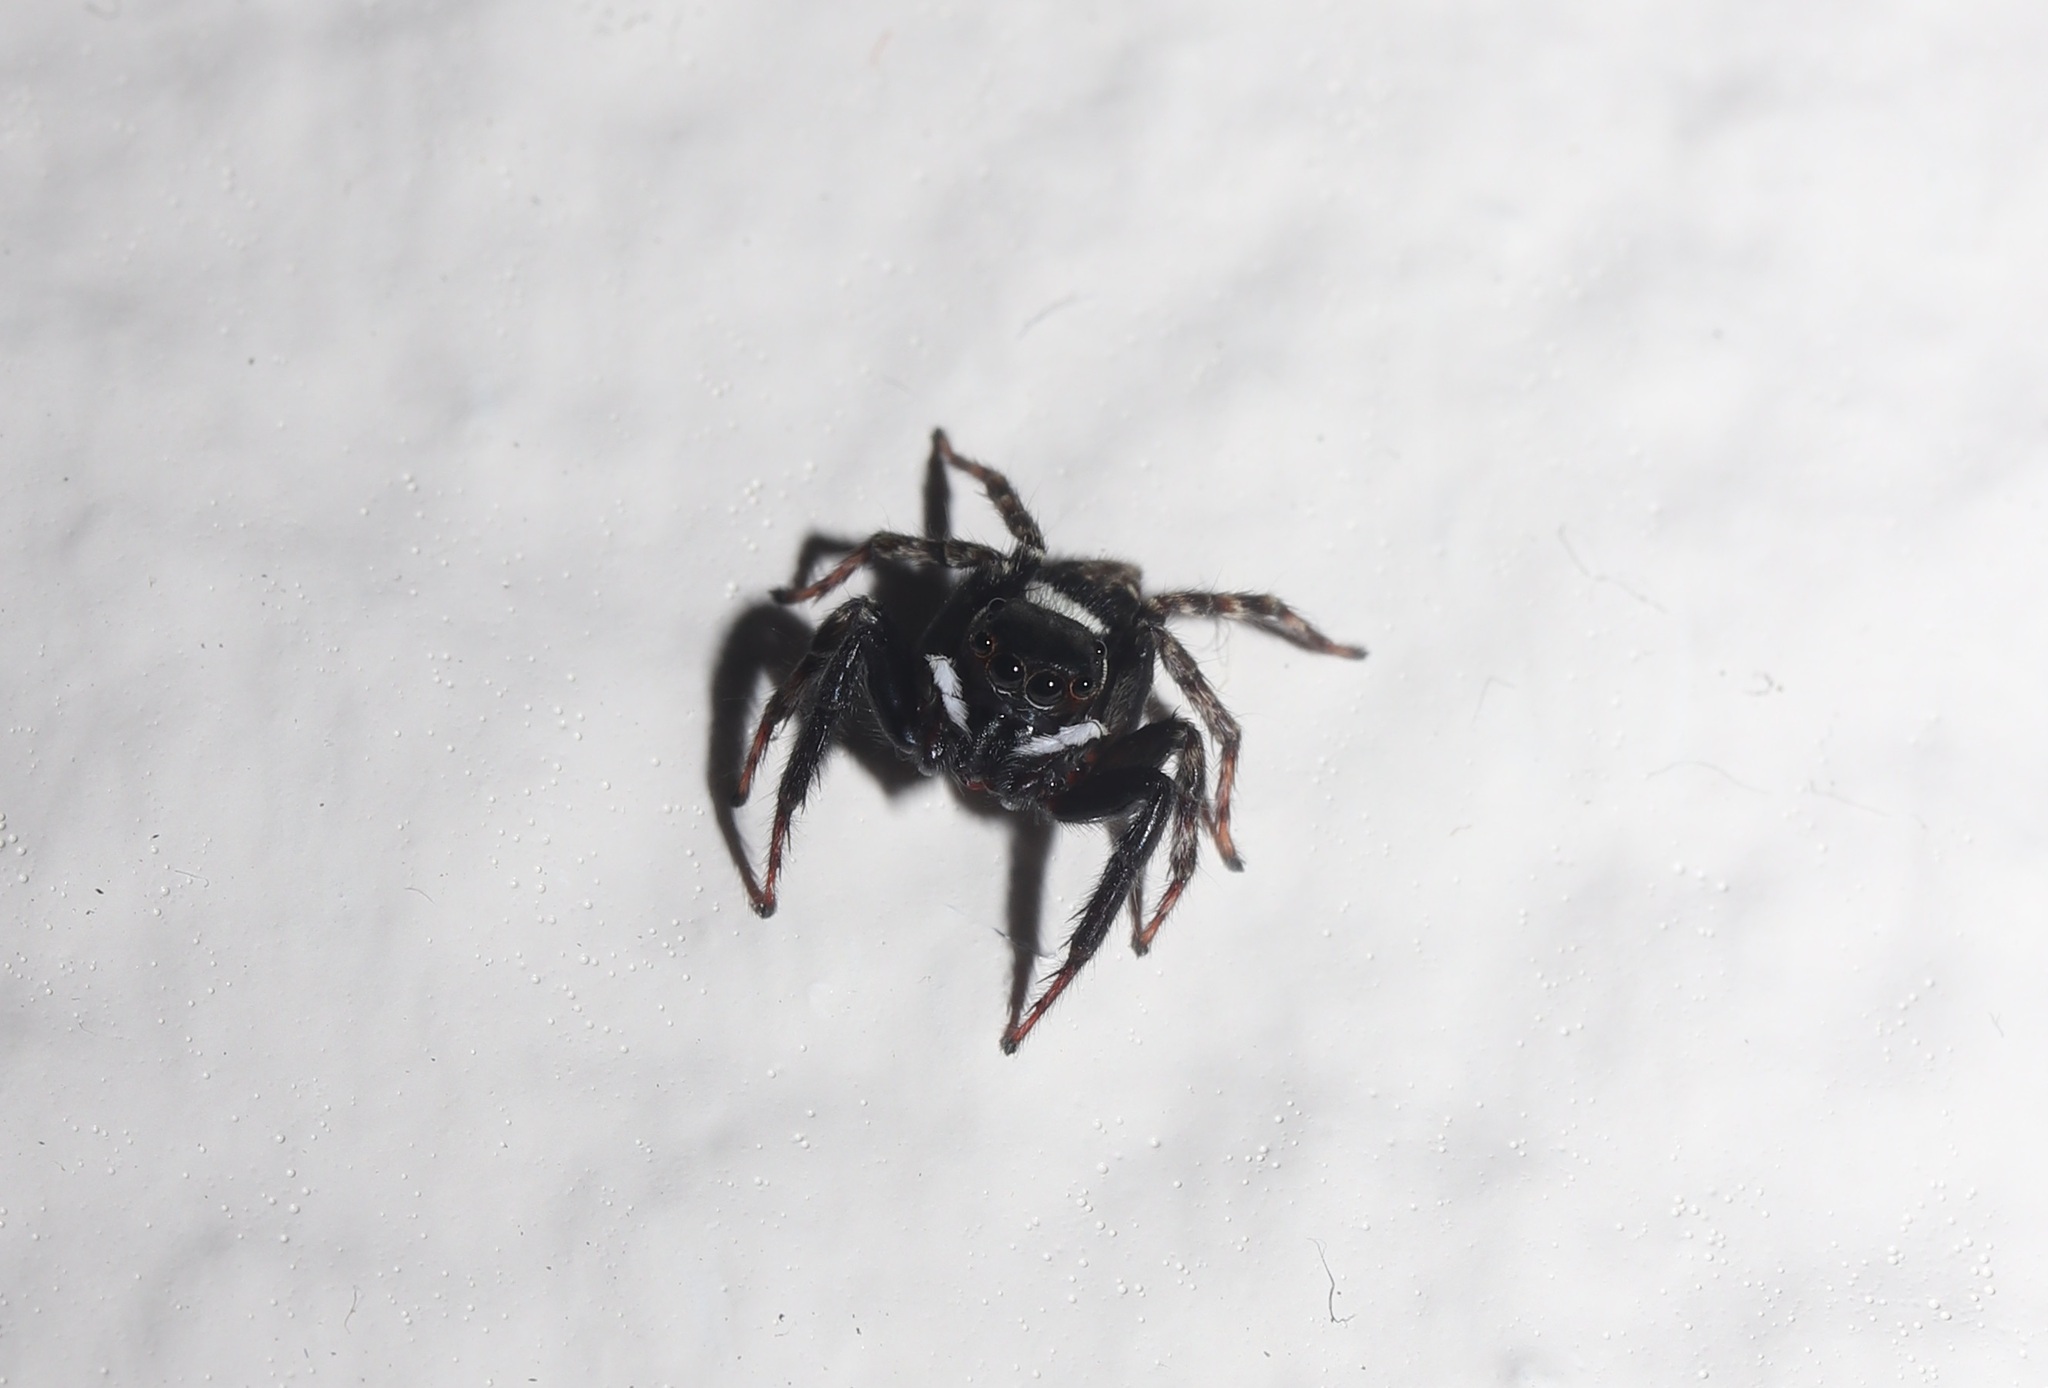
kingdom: Animalia
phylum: Arthropoda
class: Arachnida
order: Araneae
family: Salticidae
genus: Hasarius
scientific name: Hasarius adansoni
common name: Jumping spider
